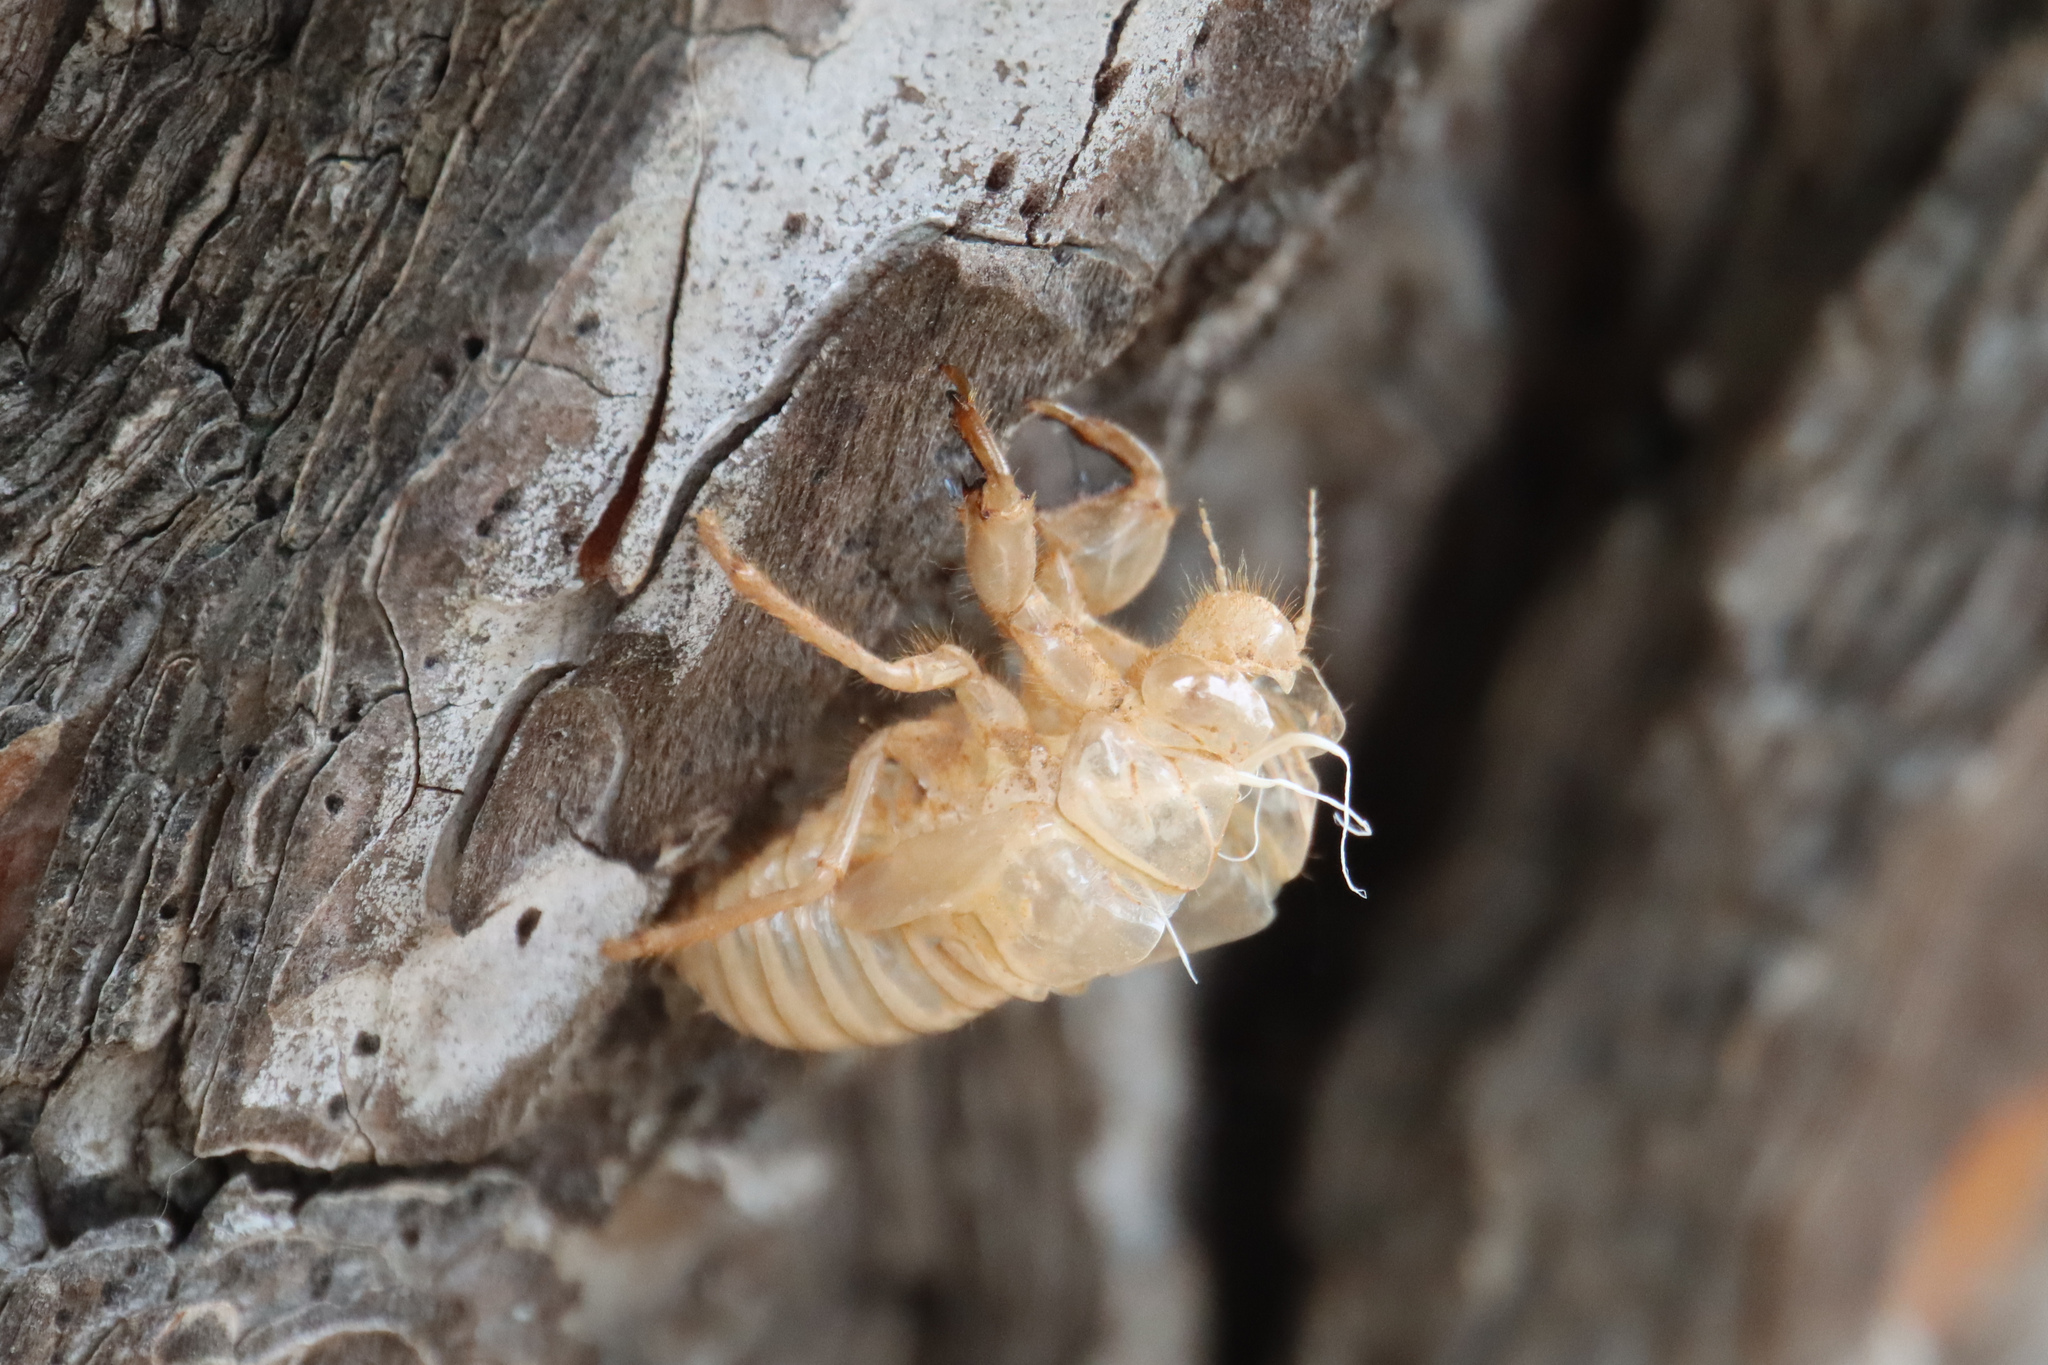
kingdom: Animalia
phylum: Arthropoda
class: Insecta
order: Hemiptera
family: Cicadidae
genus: Cicada
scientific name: Cicada orni
